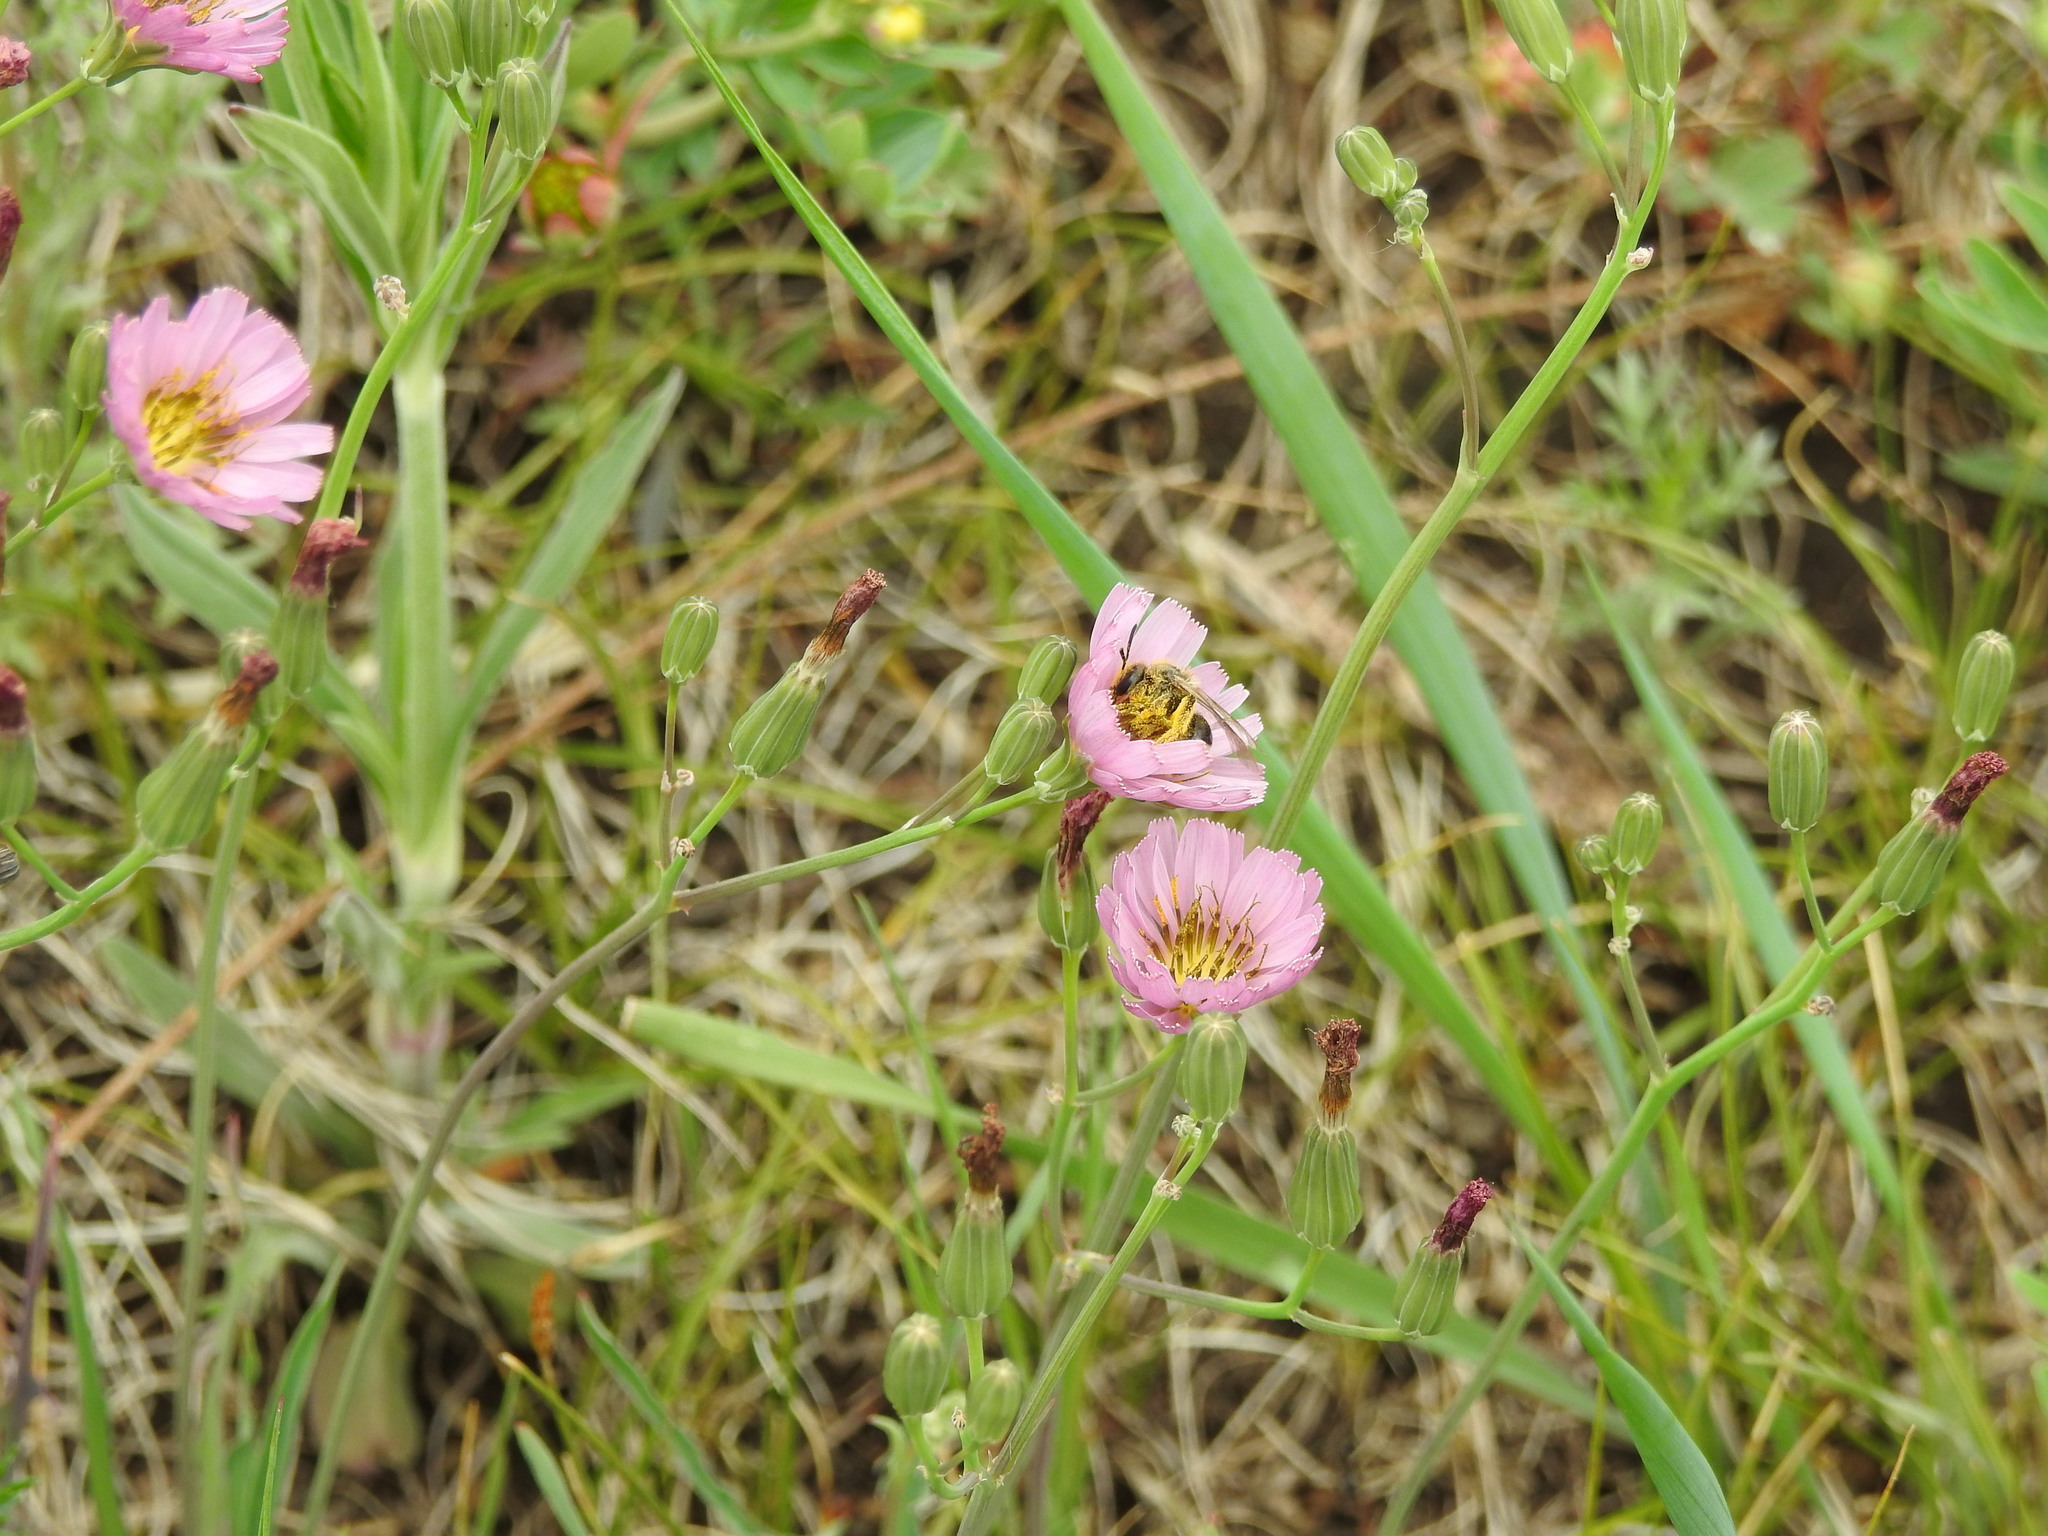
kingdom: Plantae
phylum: Tracheophyta
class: Magnoliopsida
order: Asterales
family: Asteraceae
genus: Ixeris
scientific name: Ixeris chinensis
